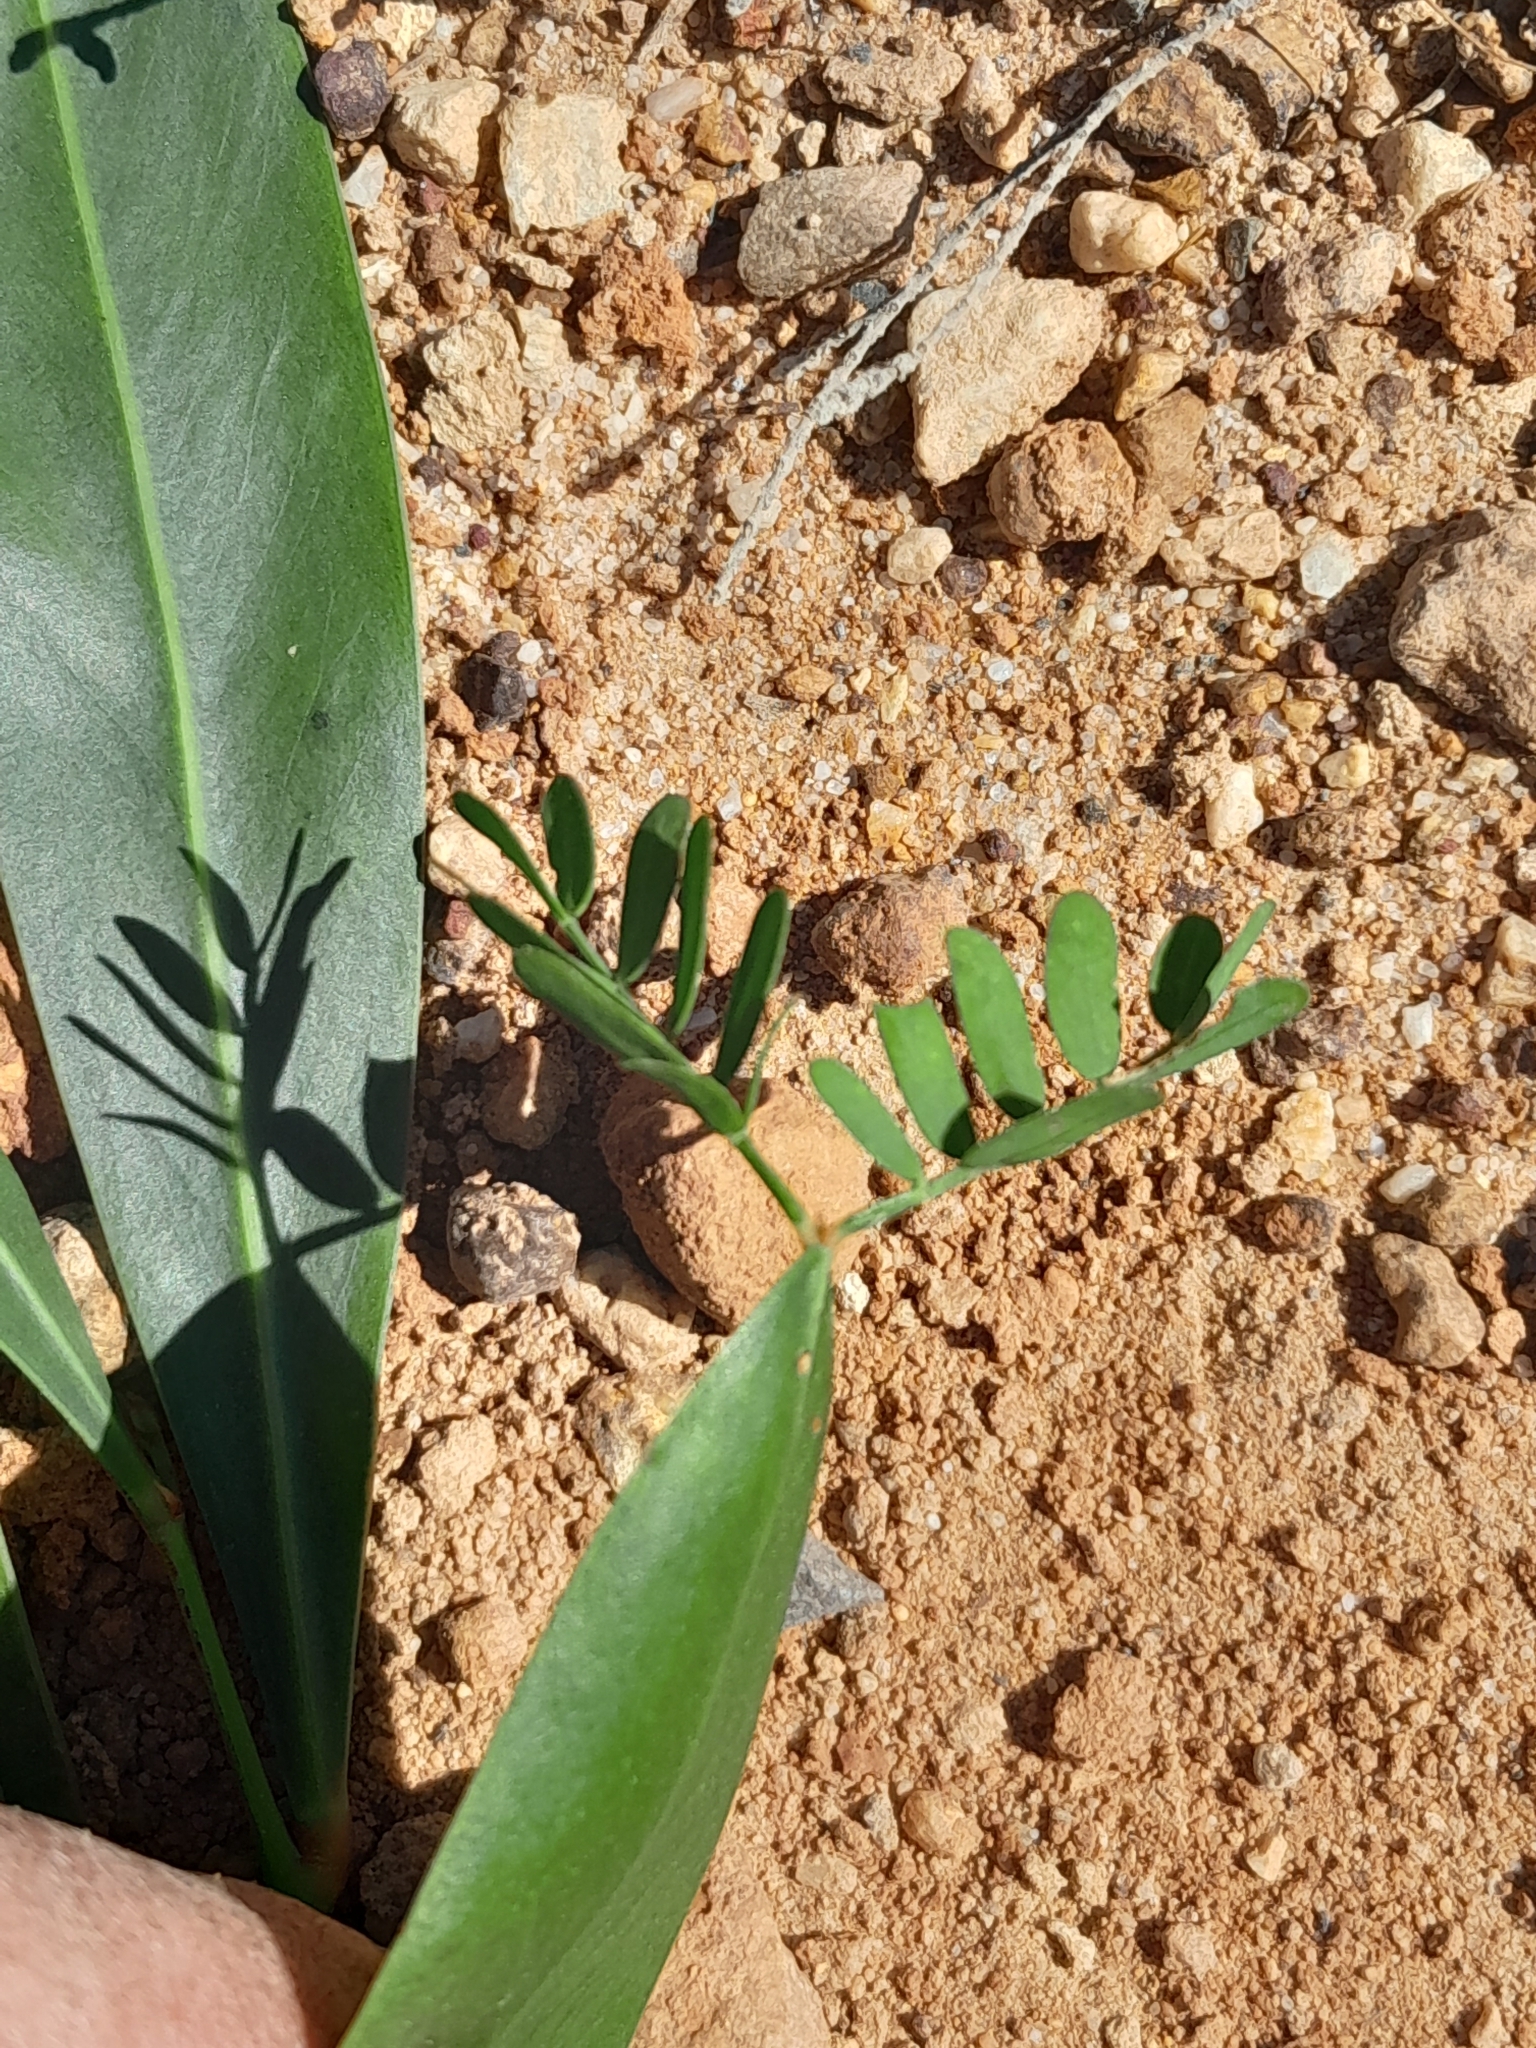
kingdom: Plantae
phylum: Tracheophyta
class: Magnoliopsida
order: Fabales
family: Fabaceae
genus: Acacia
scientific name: Acacia saligna
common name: Orange wattle
